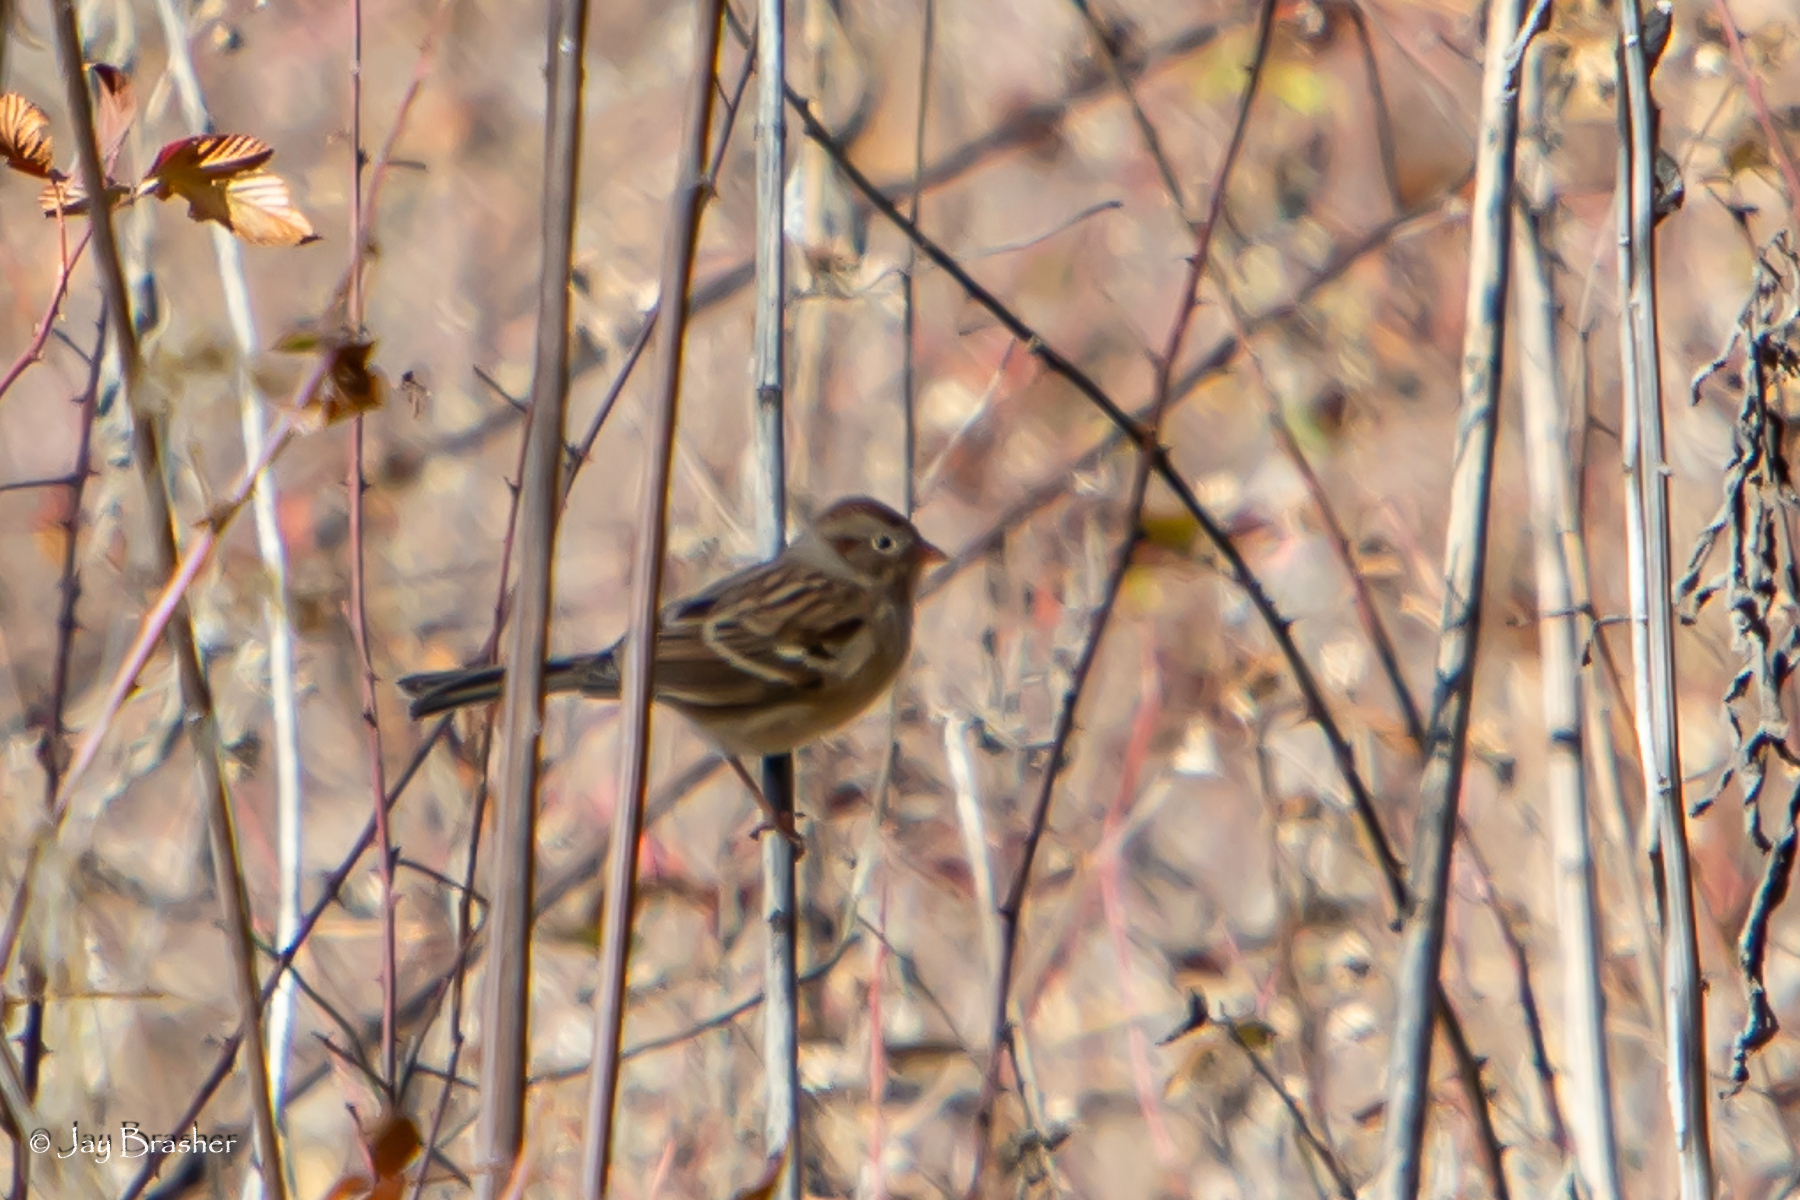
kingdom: Animalia
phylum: Chordata
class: Aves
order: Passeriformes
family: Passerellidae
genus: Spizella
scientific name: Spizella pusilla
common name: Field sparrow
